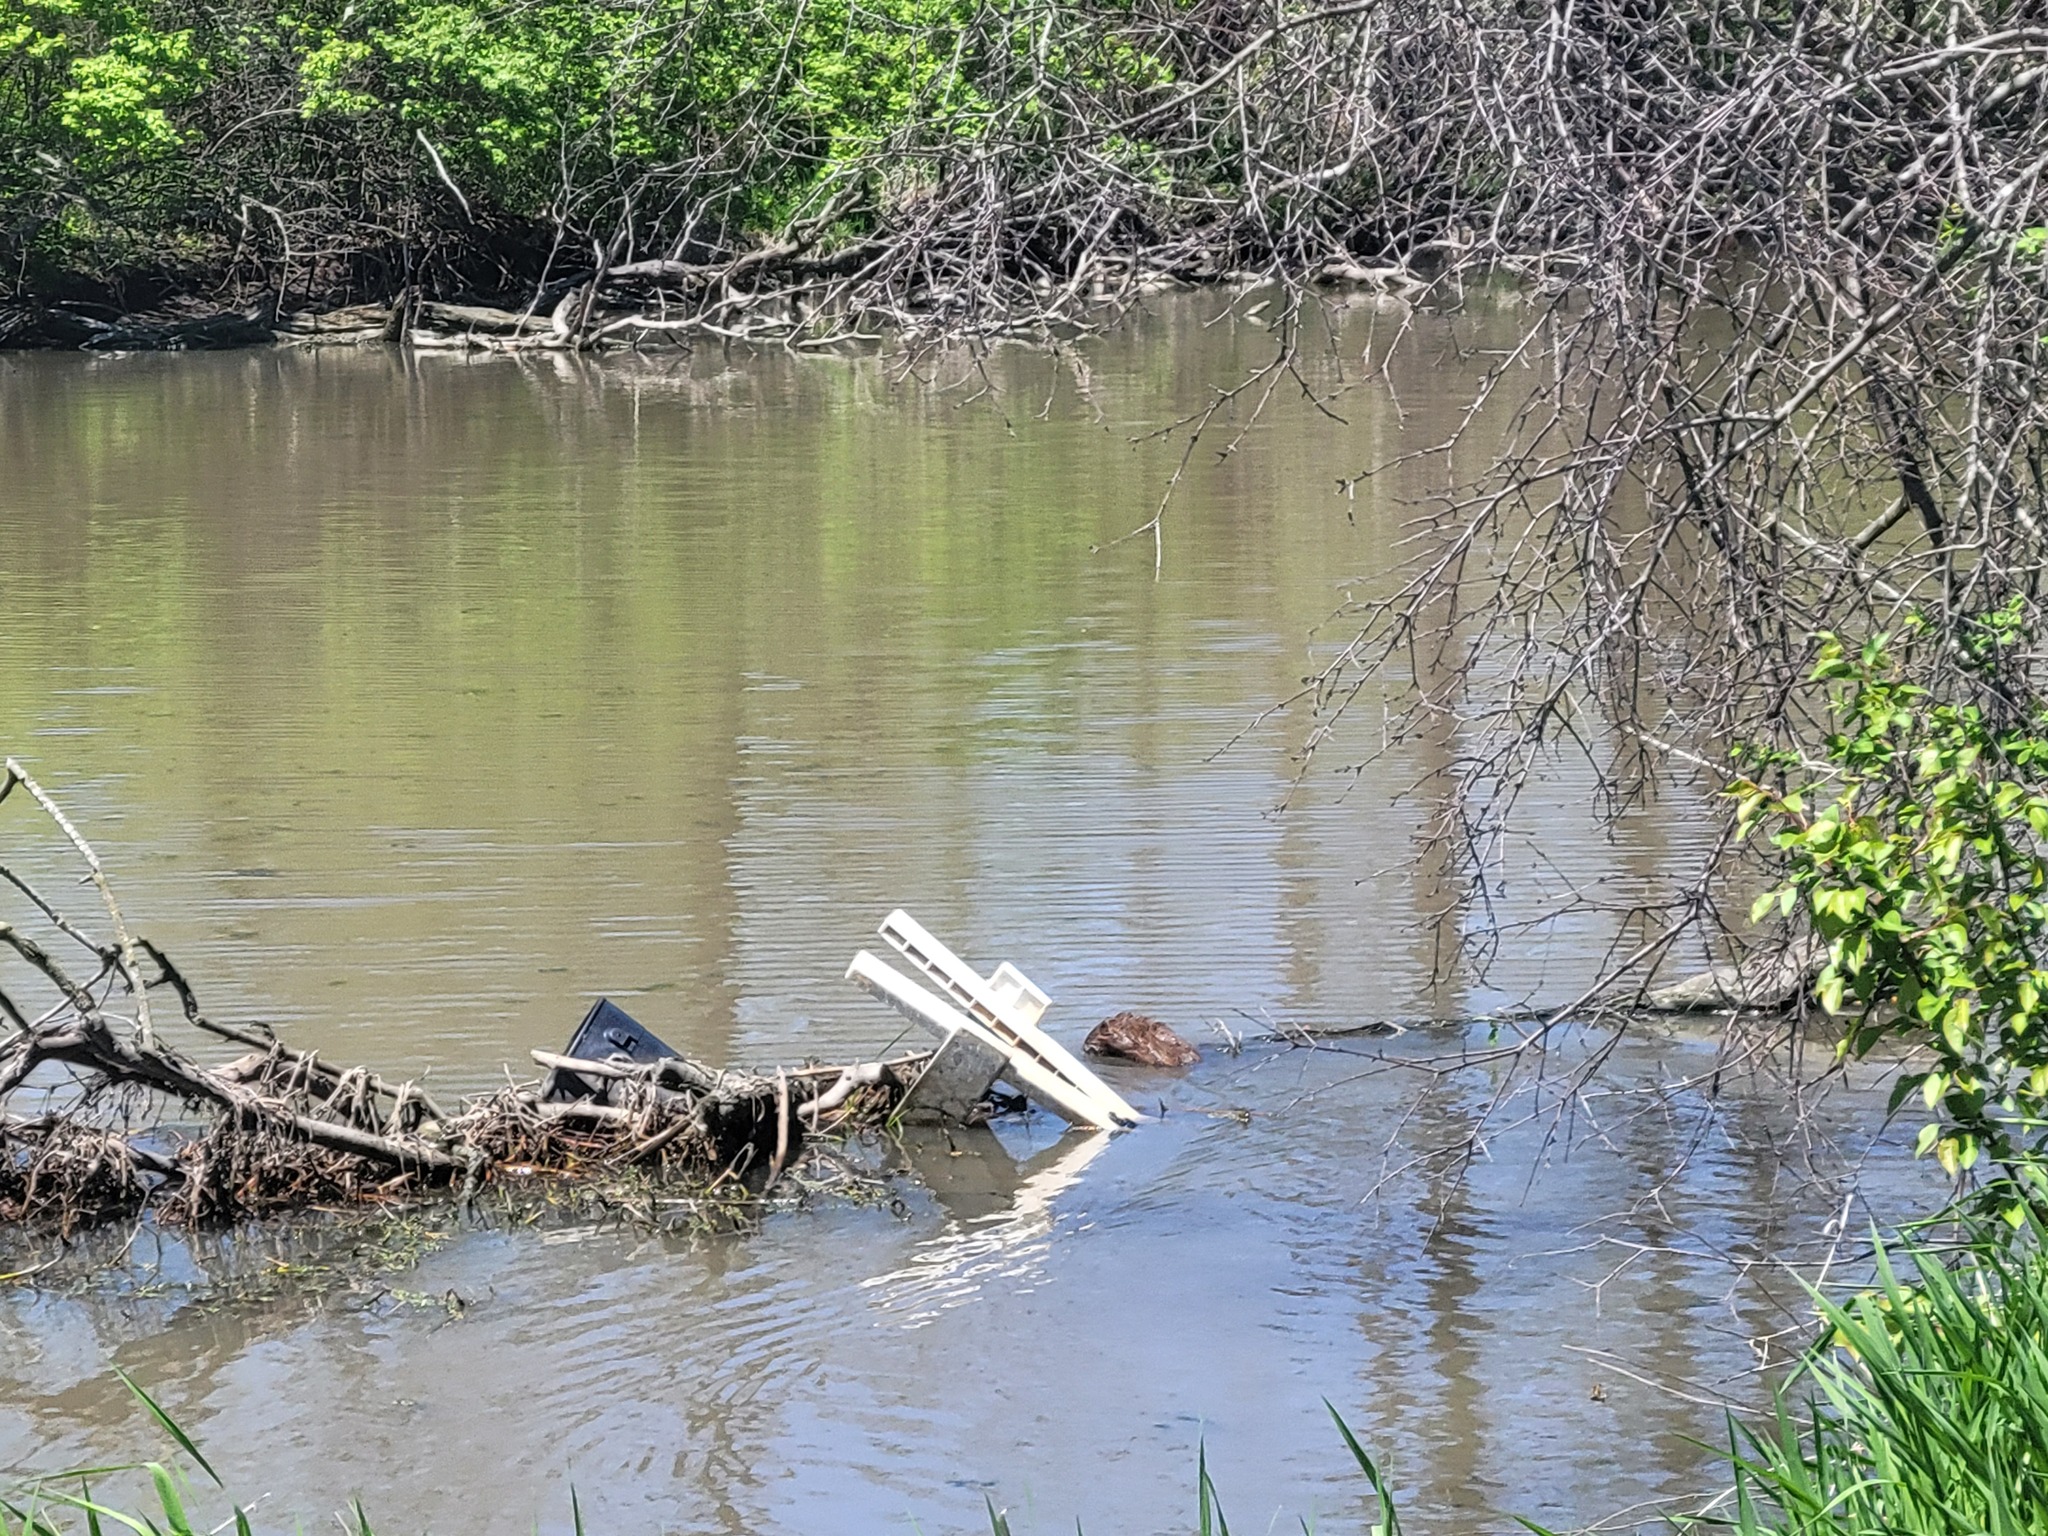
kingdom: Animalia
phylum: Chordata
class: Mammalia
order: Rodentia
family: Cricetidae
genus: Ondatra
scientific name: Ondatra zibethicus
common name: Muskrat
